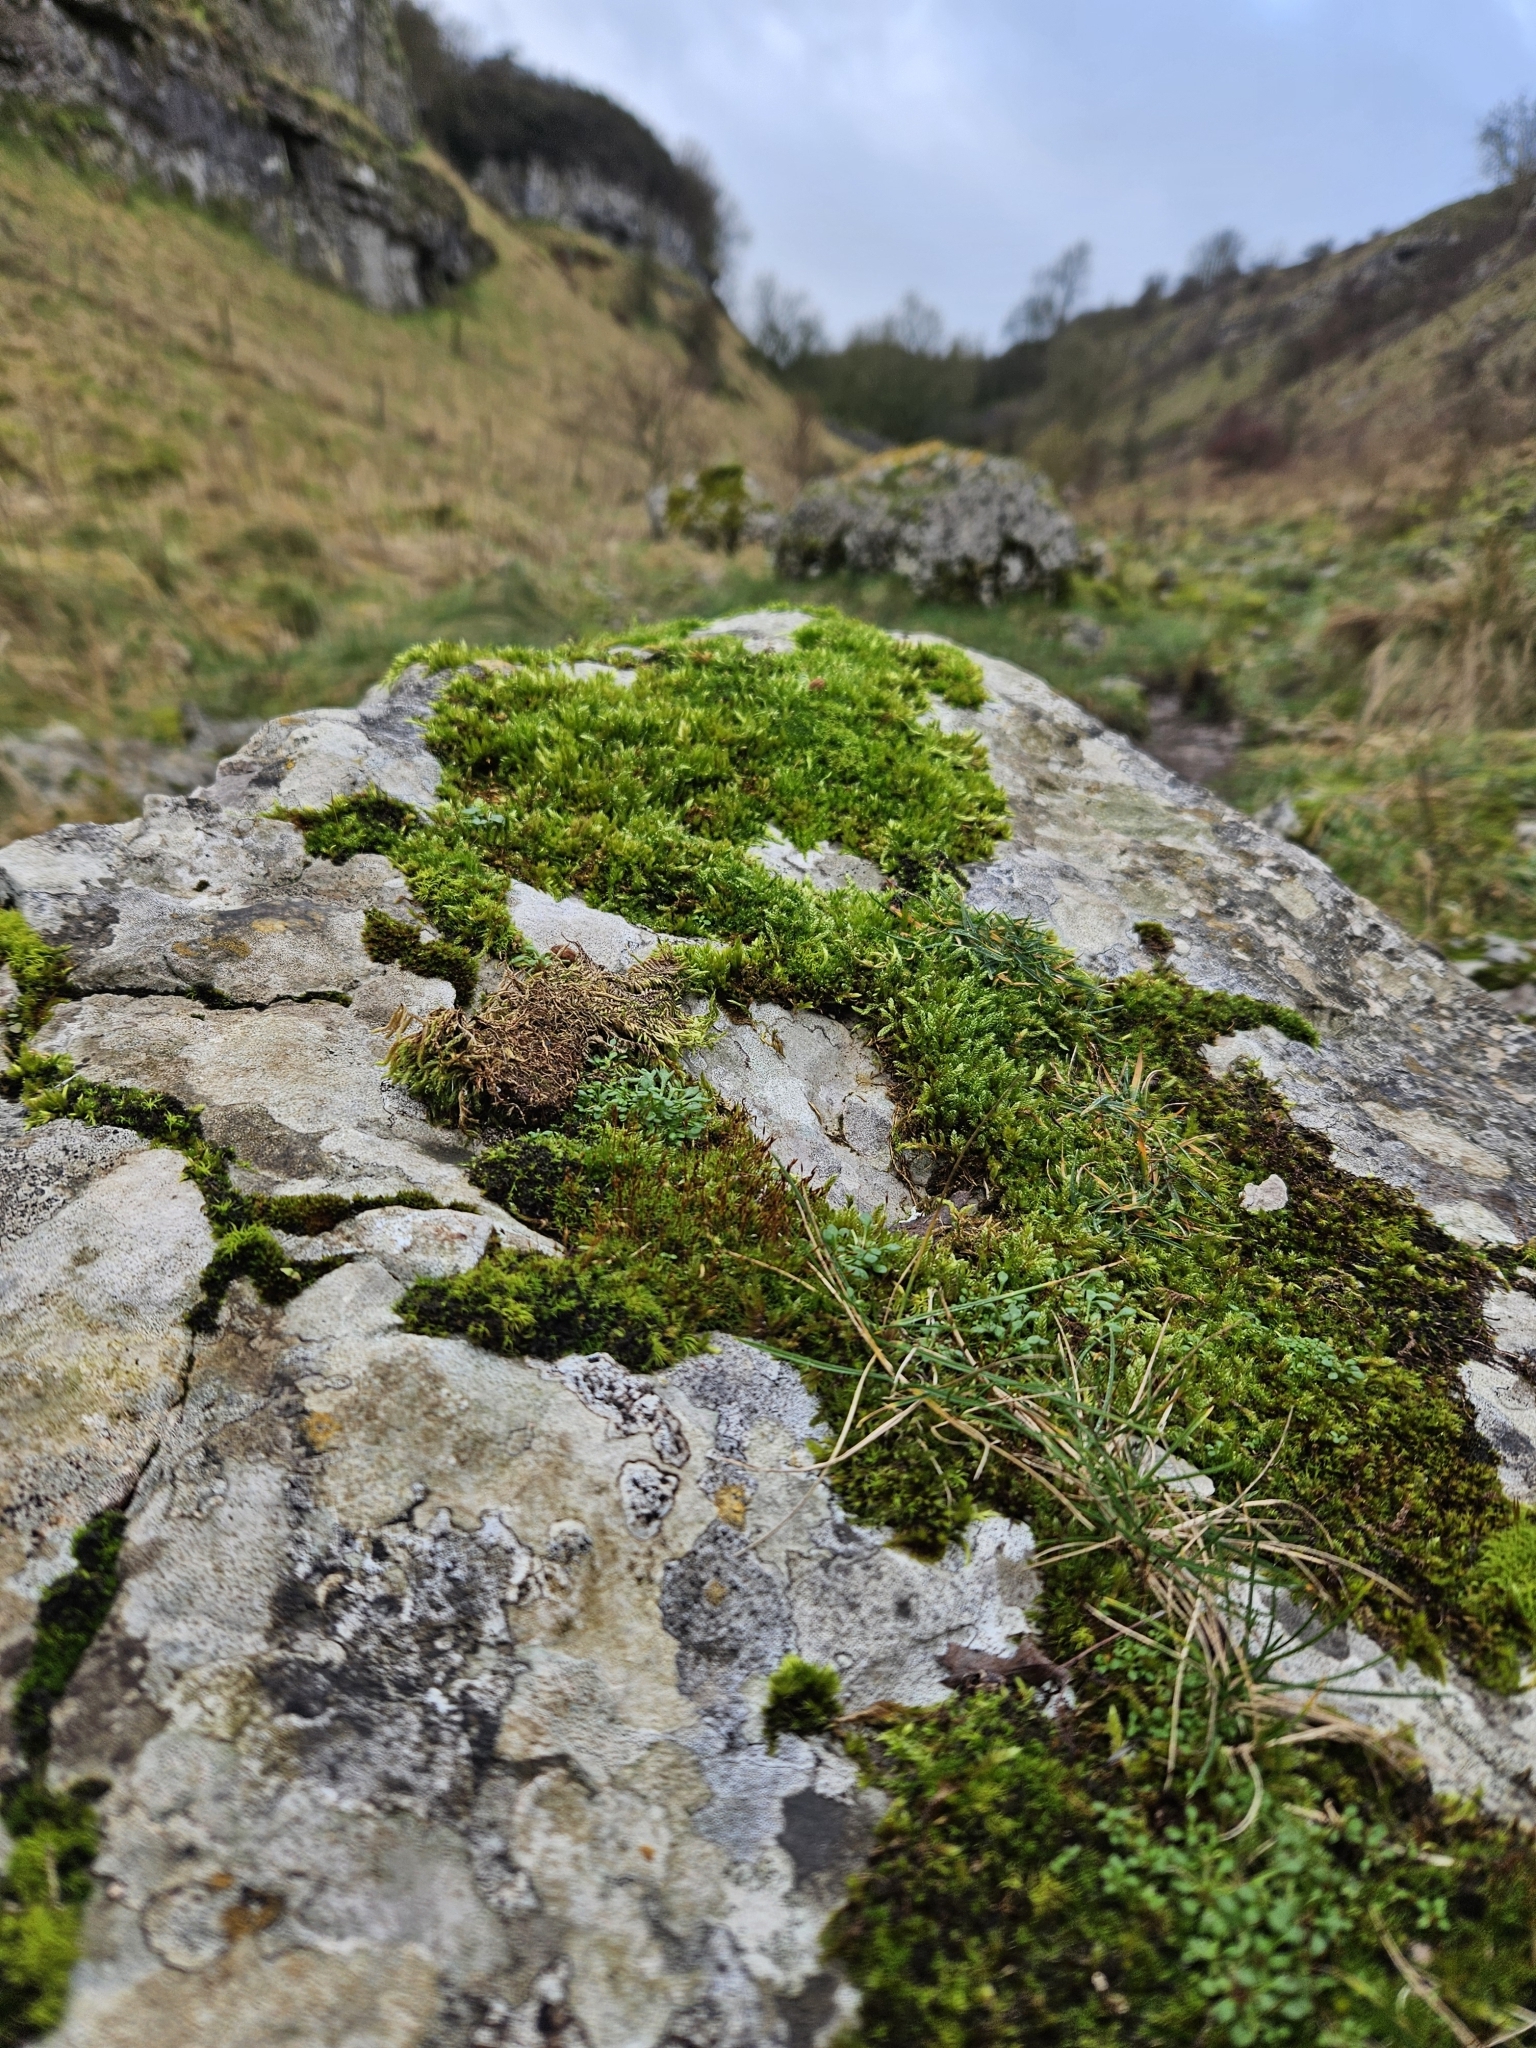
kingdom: Plantae
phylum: Bryophyta
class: Bryopsida
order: Pottiales
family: Pottiaceae
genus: Bryoerythrophyllum
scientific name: Bryoerythrophyllum recurvirostrum
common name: Red beard moss
